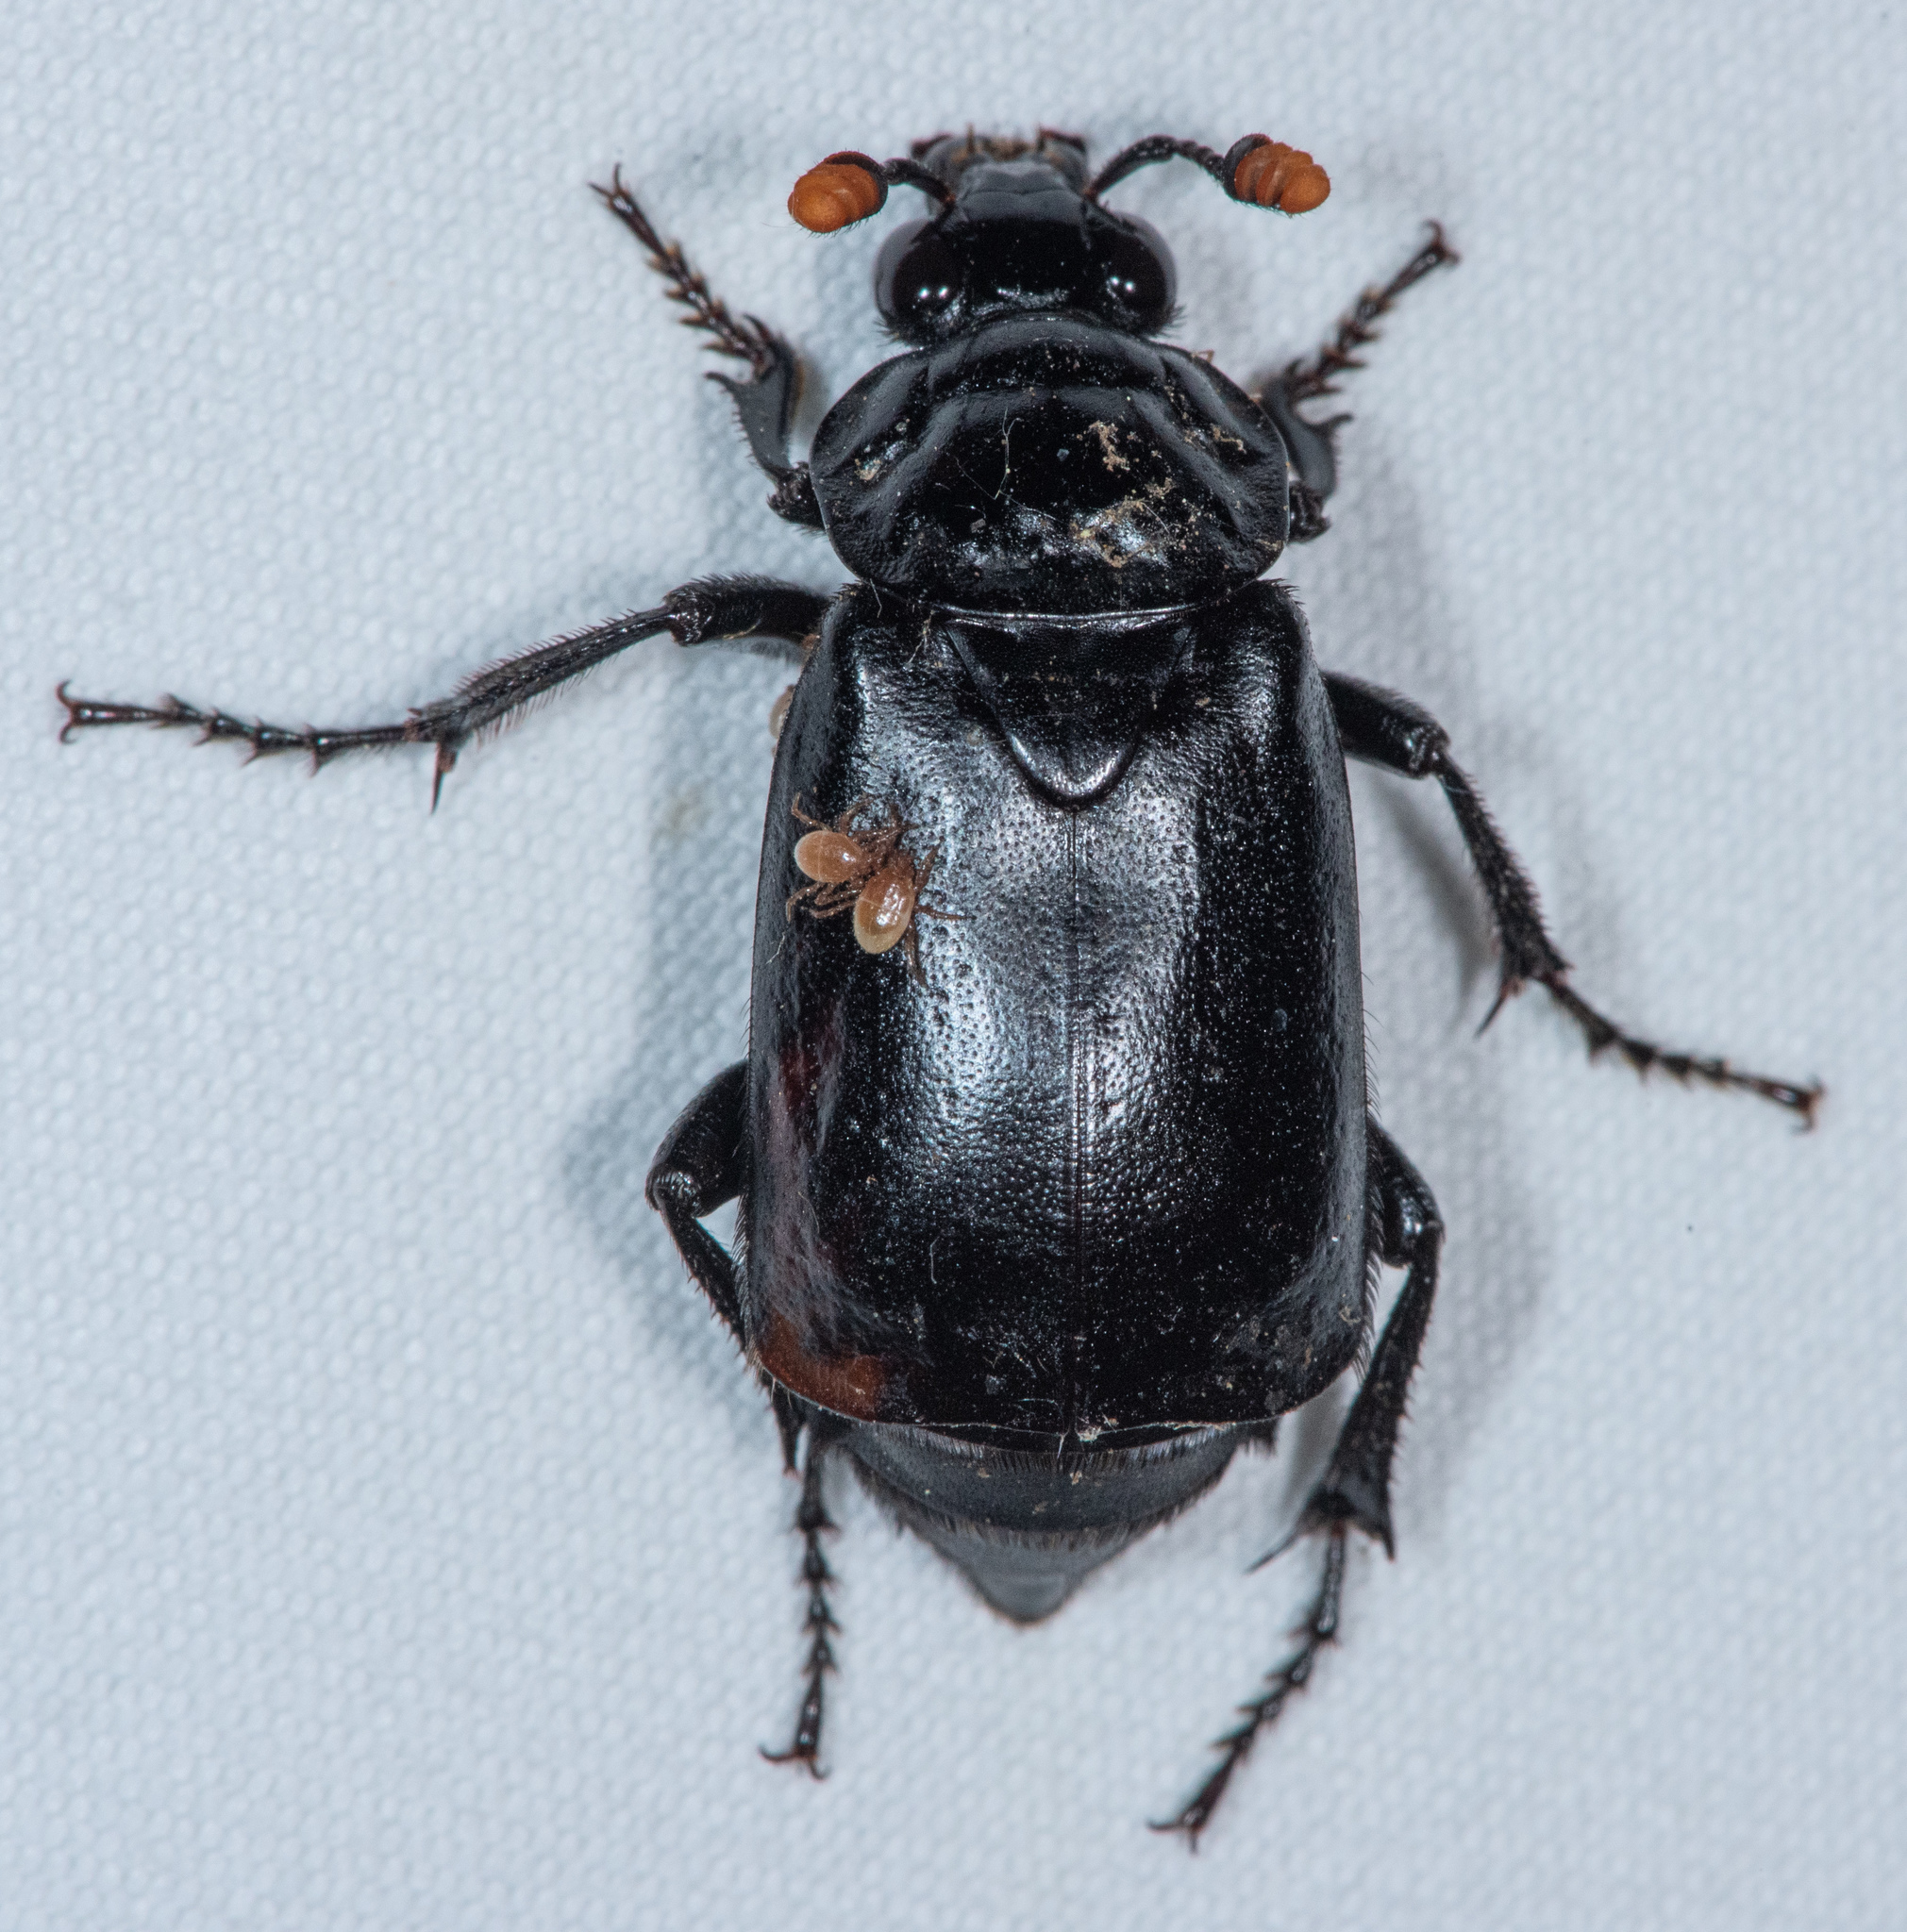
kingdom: Animalia
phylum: Arthropoda
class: Insecta
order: Coleoptera
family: Staphylinidae
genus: Nicrophorus
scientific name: Nicrophorus nigrita
